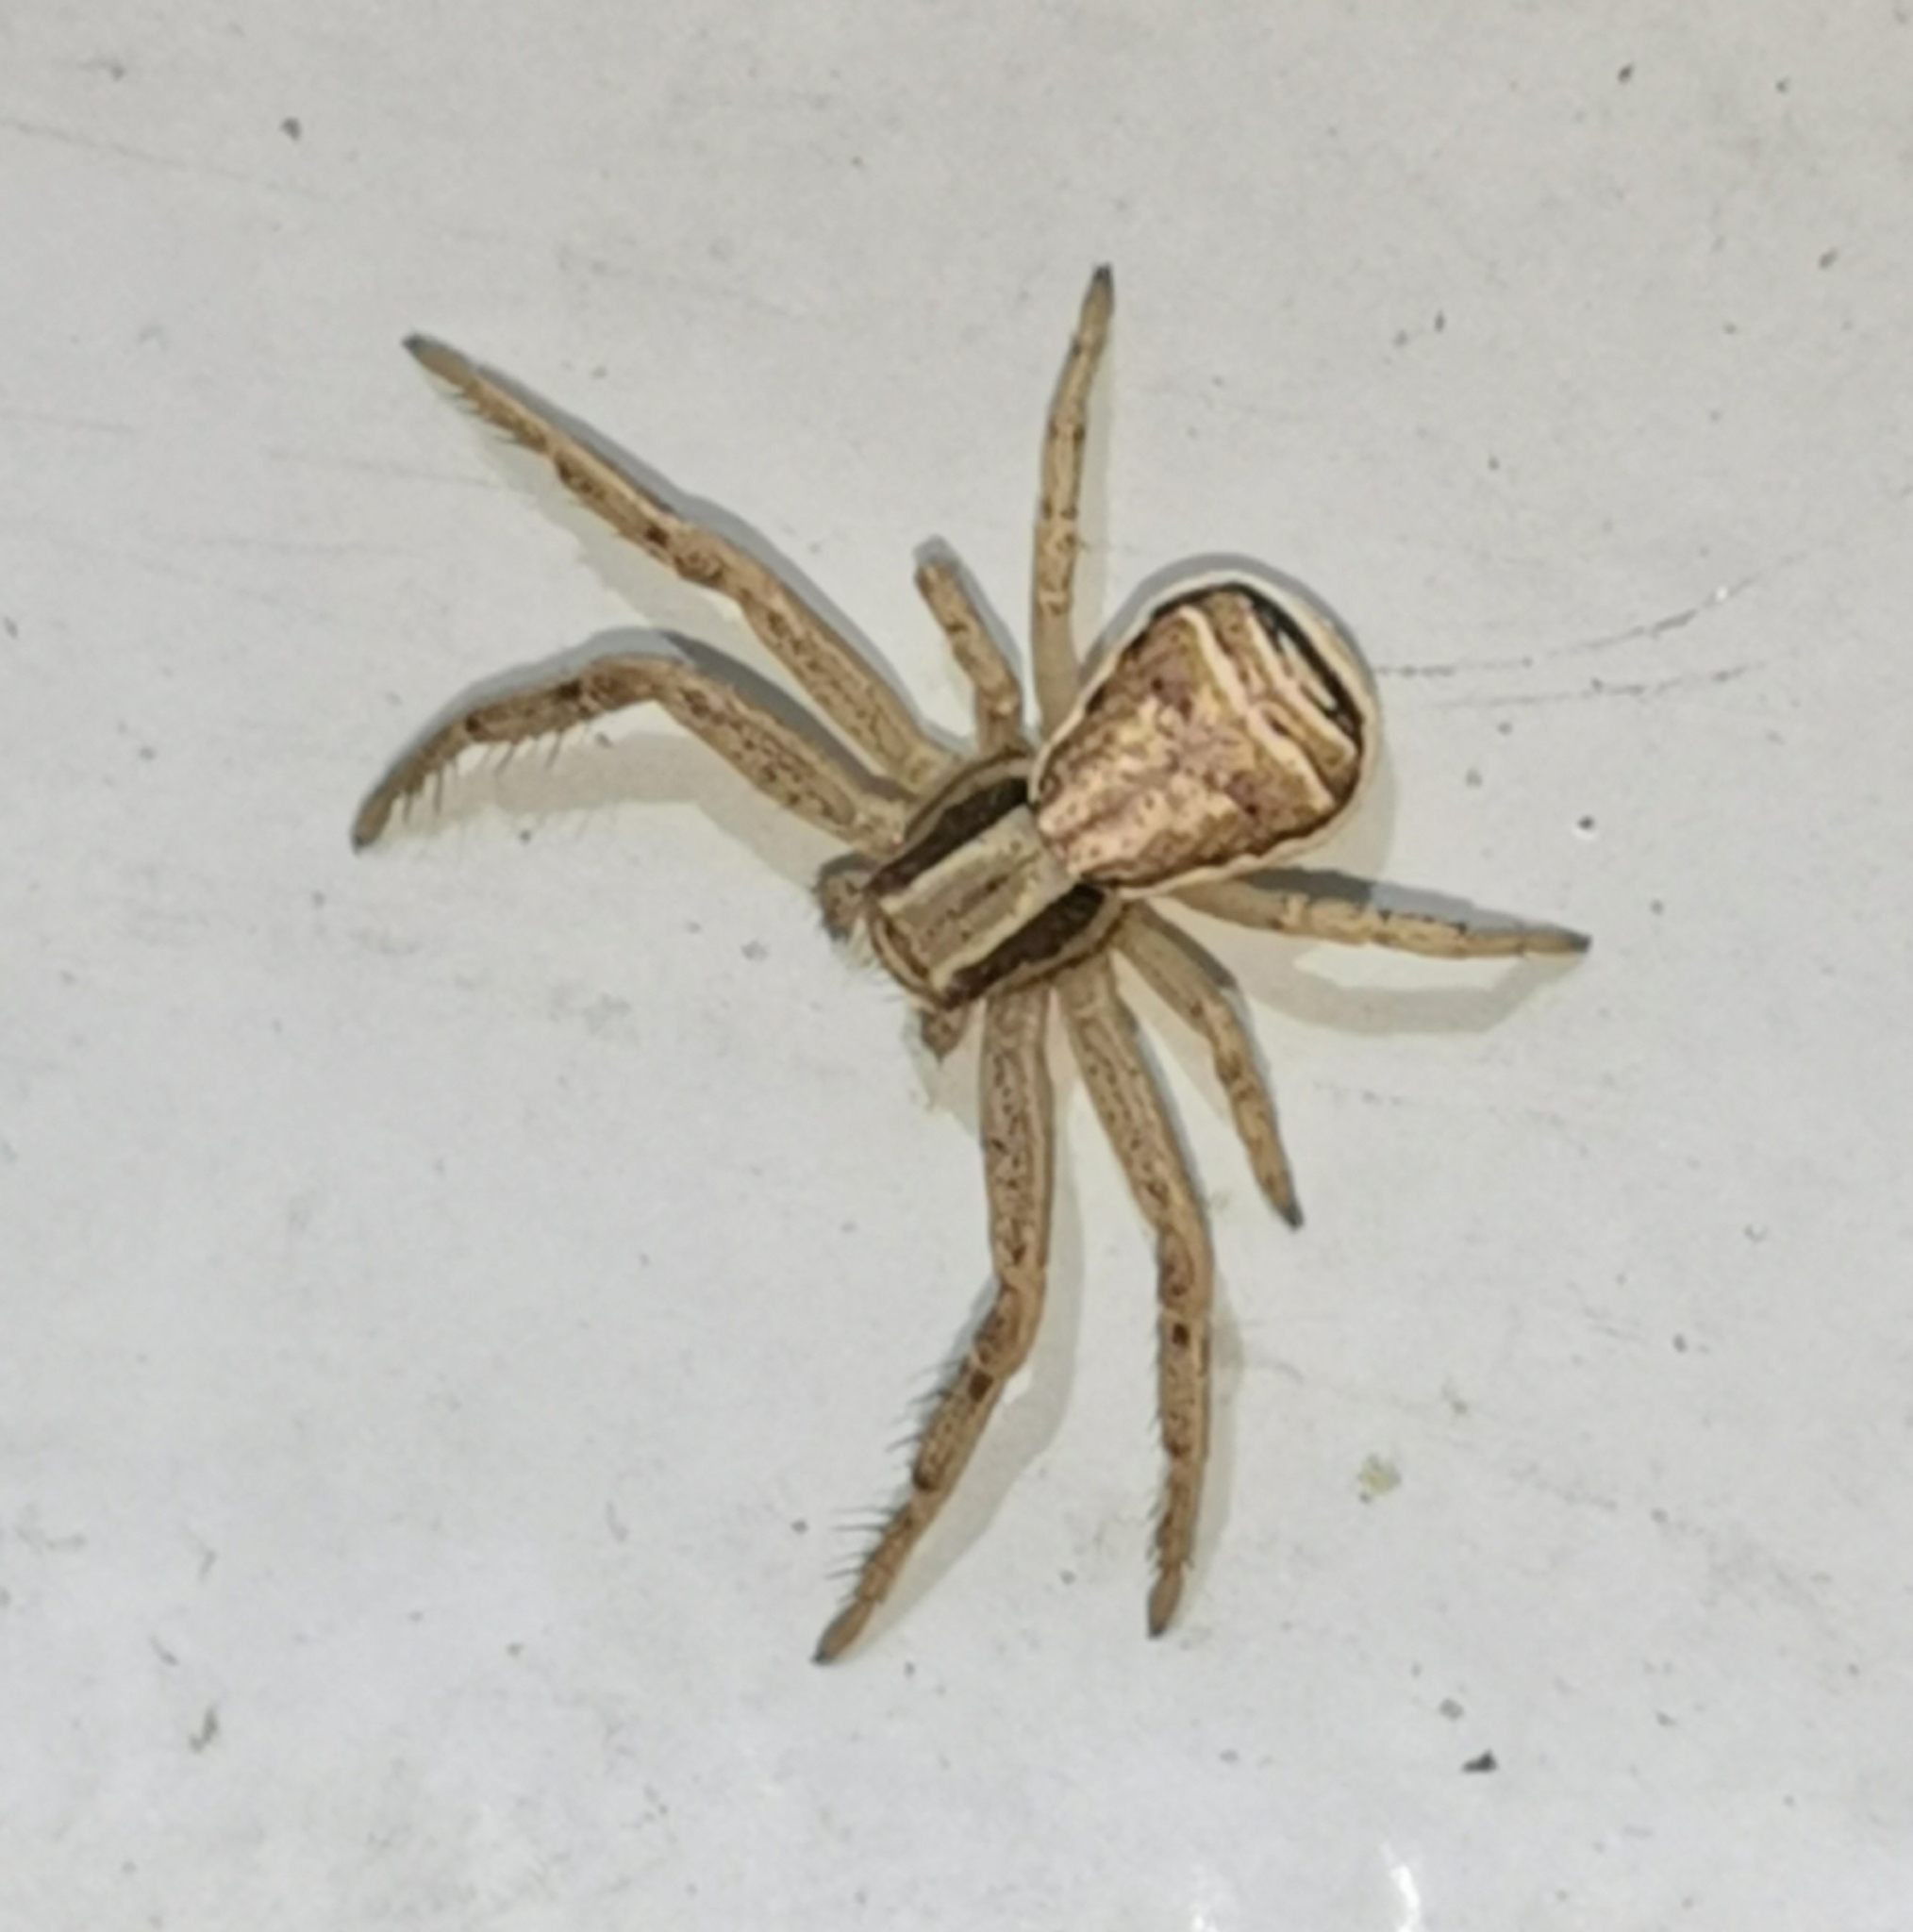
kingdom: Animalia
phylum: Arthropoda
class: Arachnida
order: Araneae
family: Thomisidae
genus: Xysticus
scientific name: Xysticus ulmi
